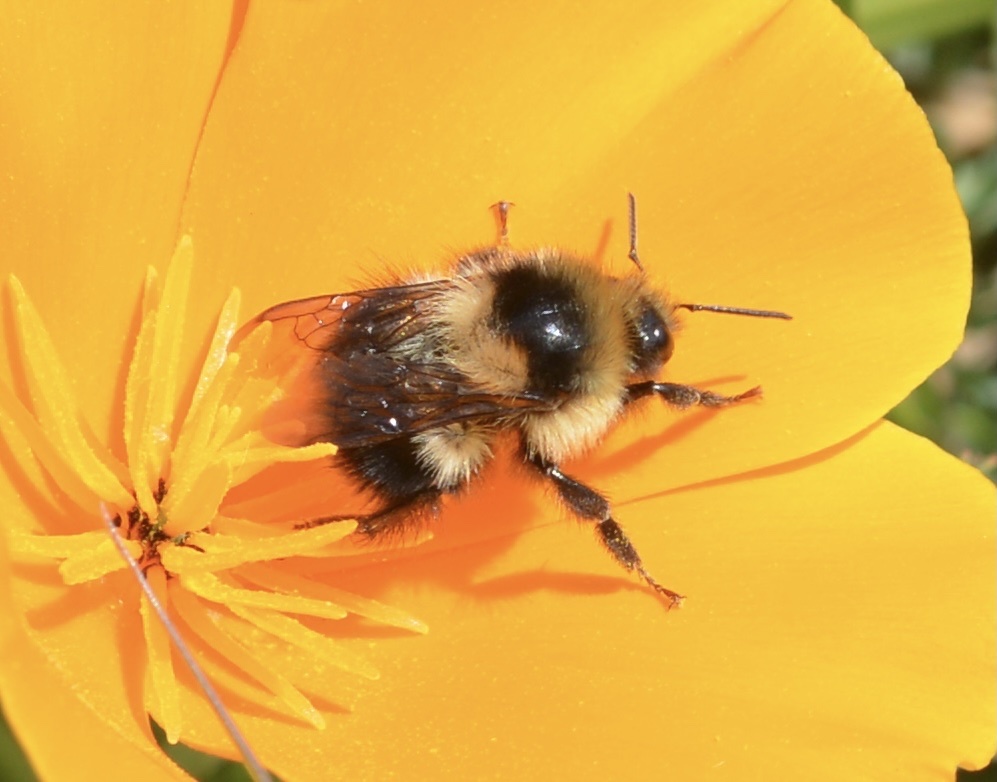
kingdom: Animalia
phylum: Arthropoda
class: Insecta
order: Hymenoptera
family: Apidae
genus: Bombus
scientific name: Bombus melanopygus
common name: Black tail bumble bee
